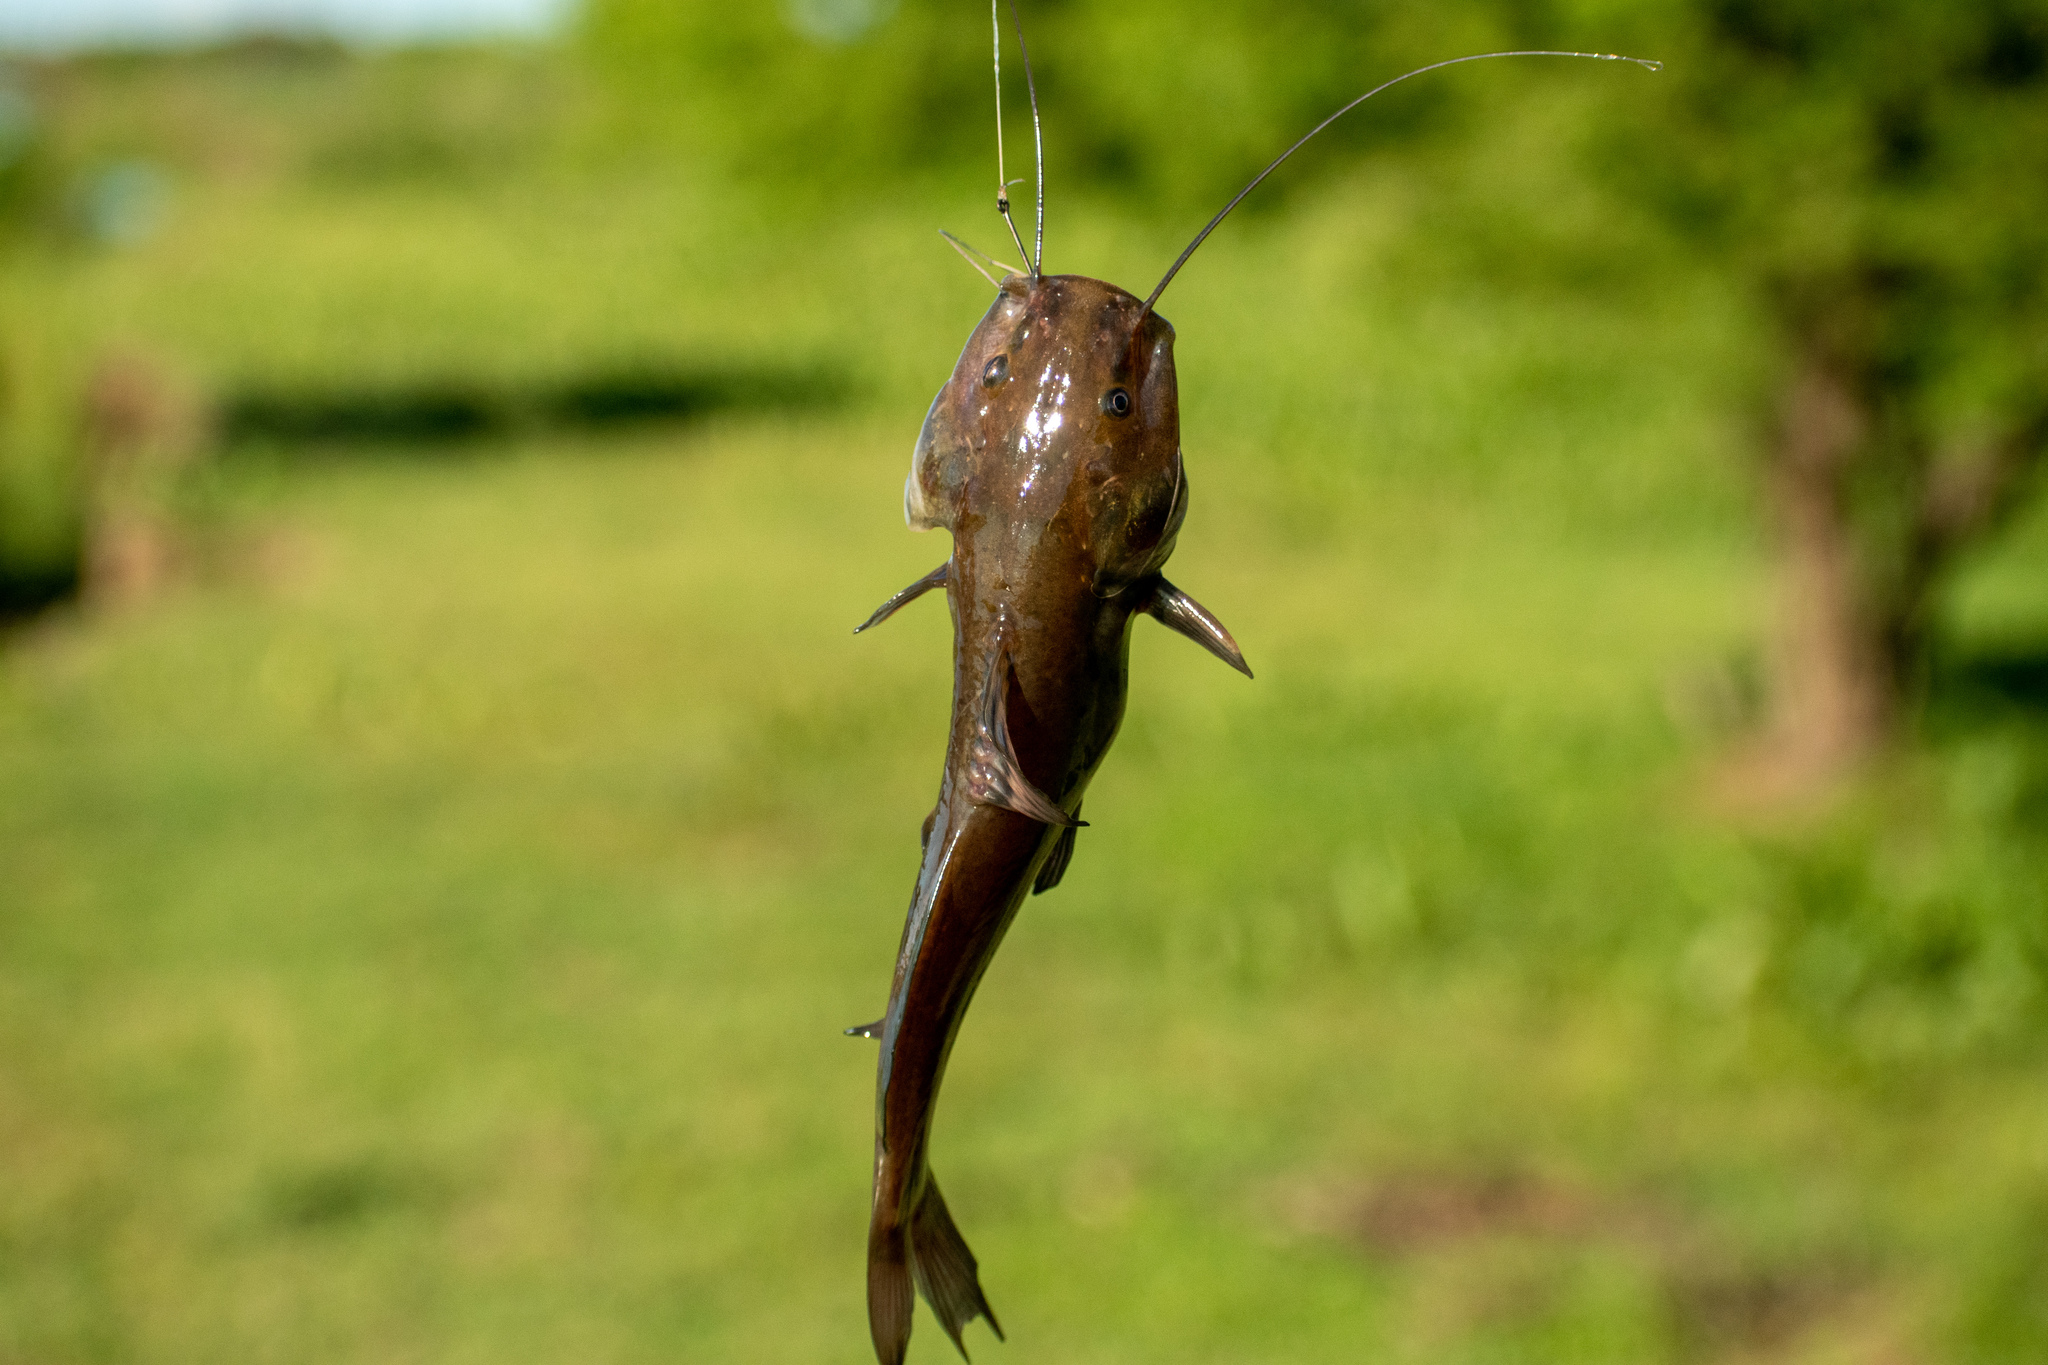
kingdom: Animalia
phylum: Chordata
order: Siluriformes
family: Heptapteridae
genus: Rhamdia
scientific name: Rhamdia quelen
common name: Catfish
